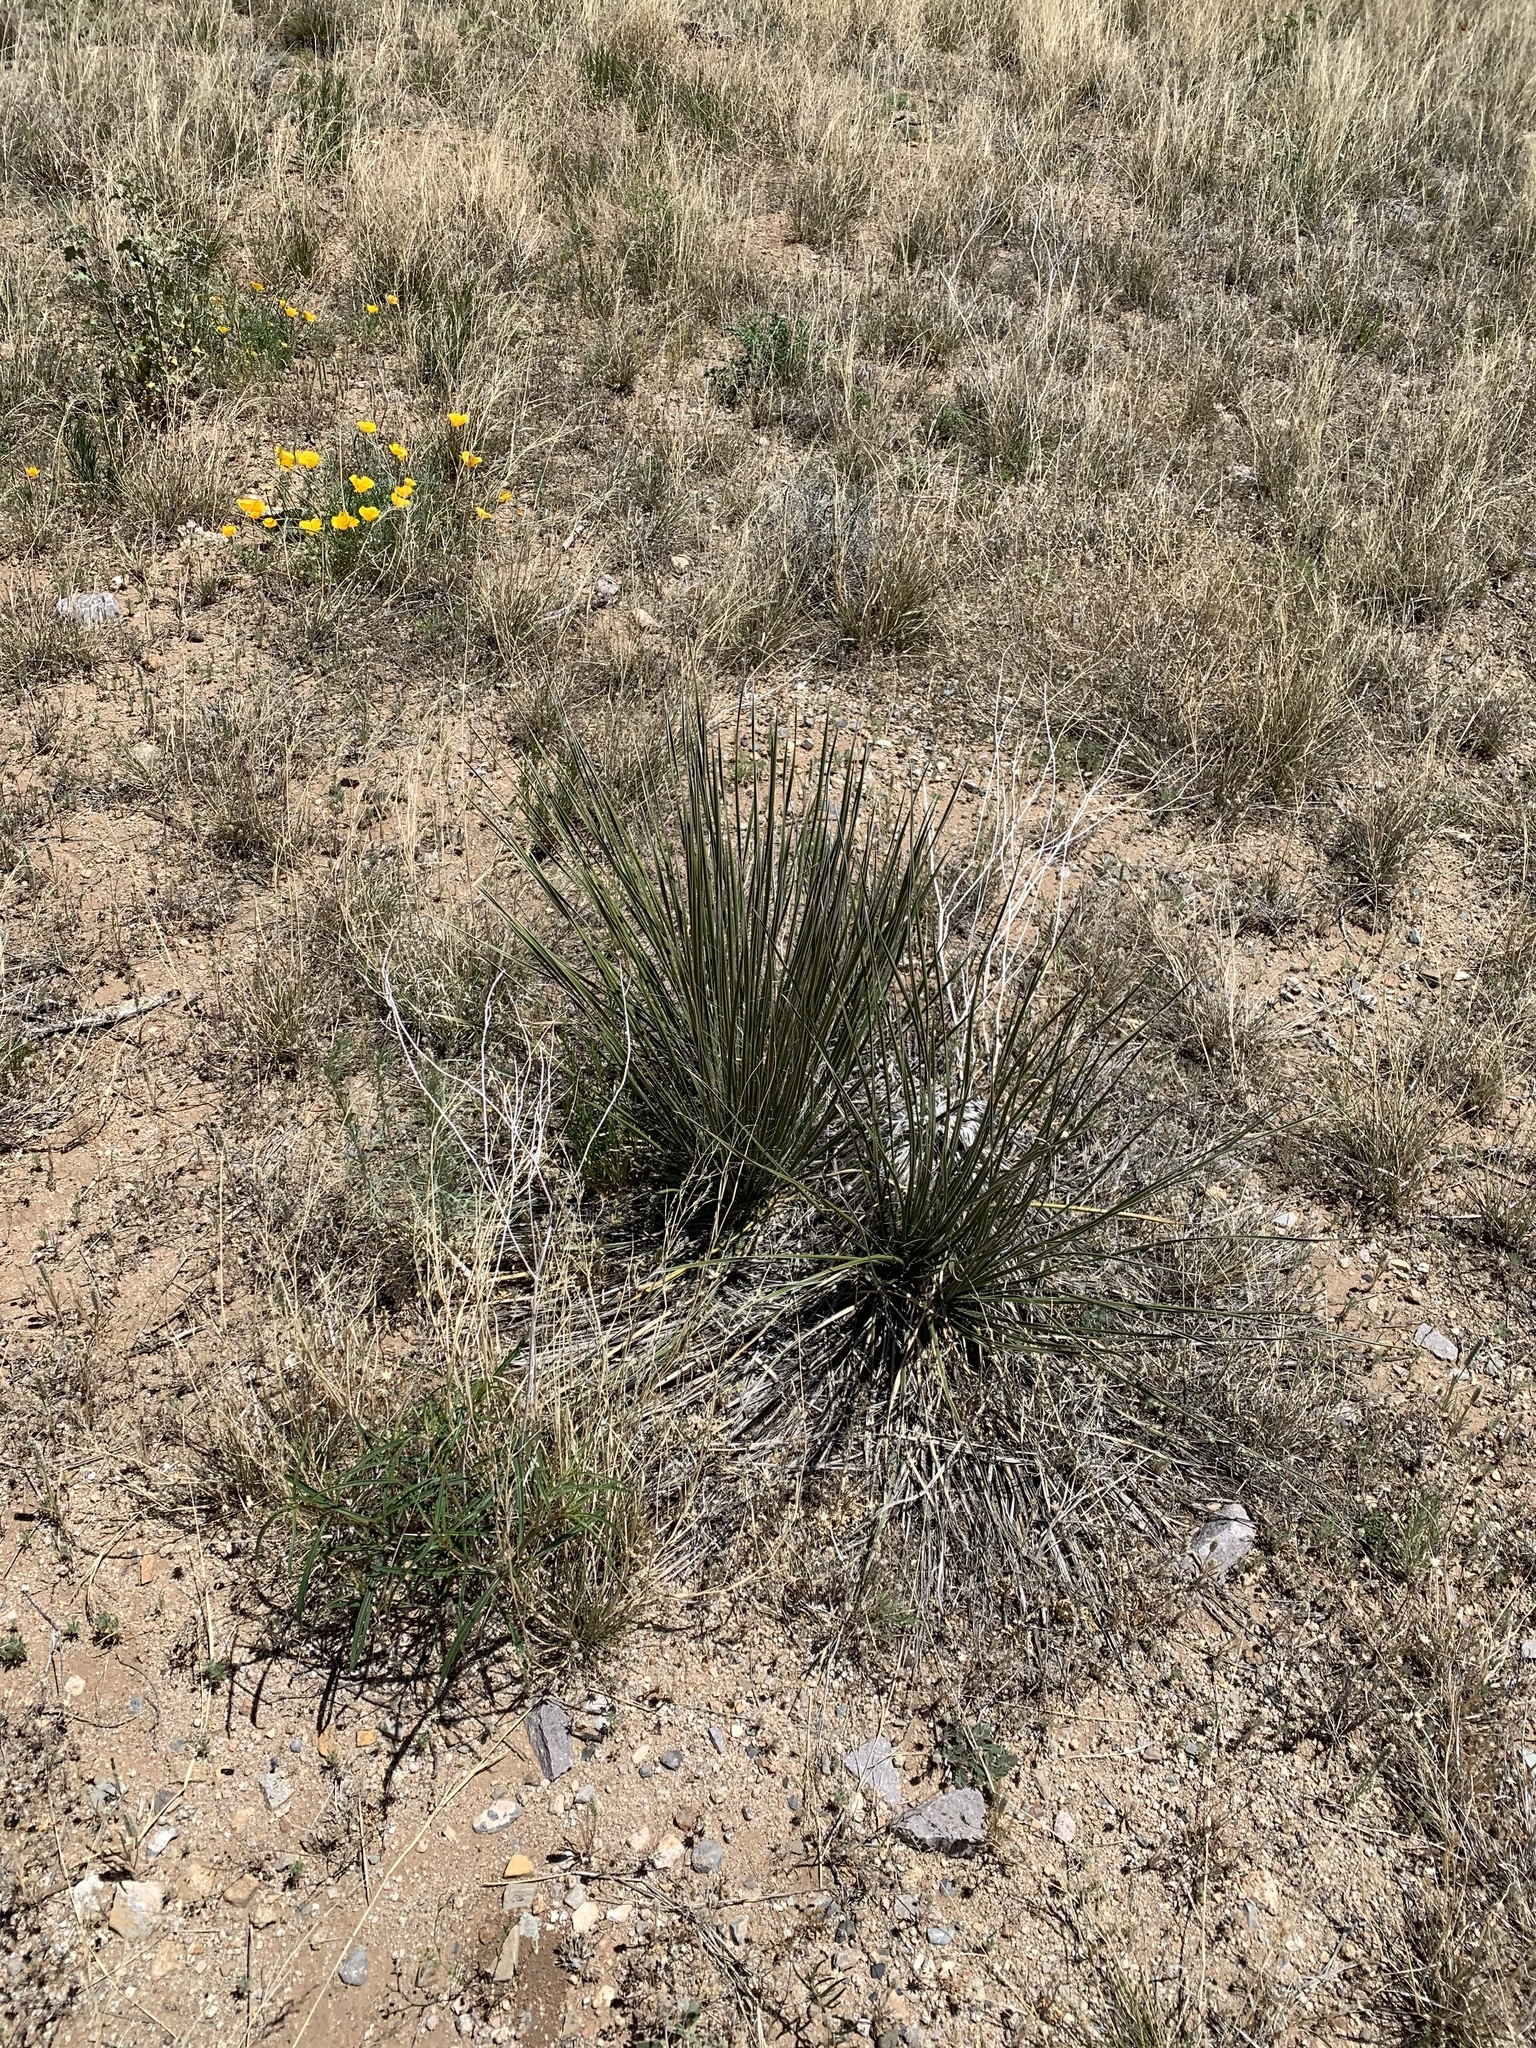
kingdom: Plantae
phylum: Tracheophyta
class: Liliopsida
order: Asparagales
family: Asparagaceae
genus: Yucca
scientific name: Yucca elata
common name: Palmella
